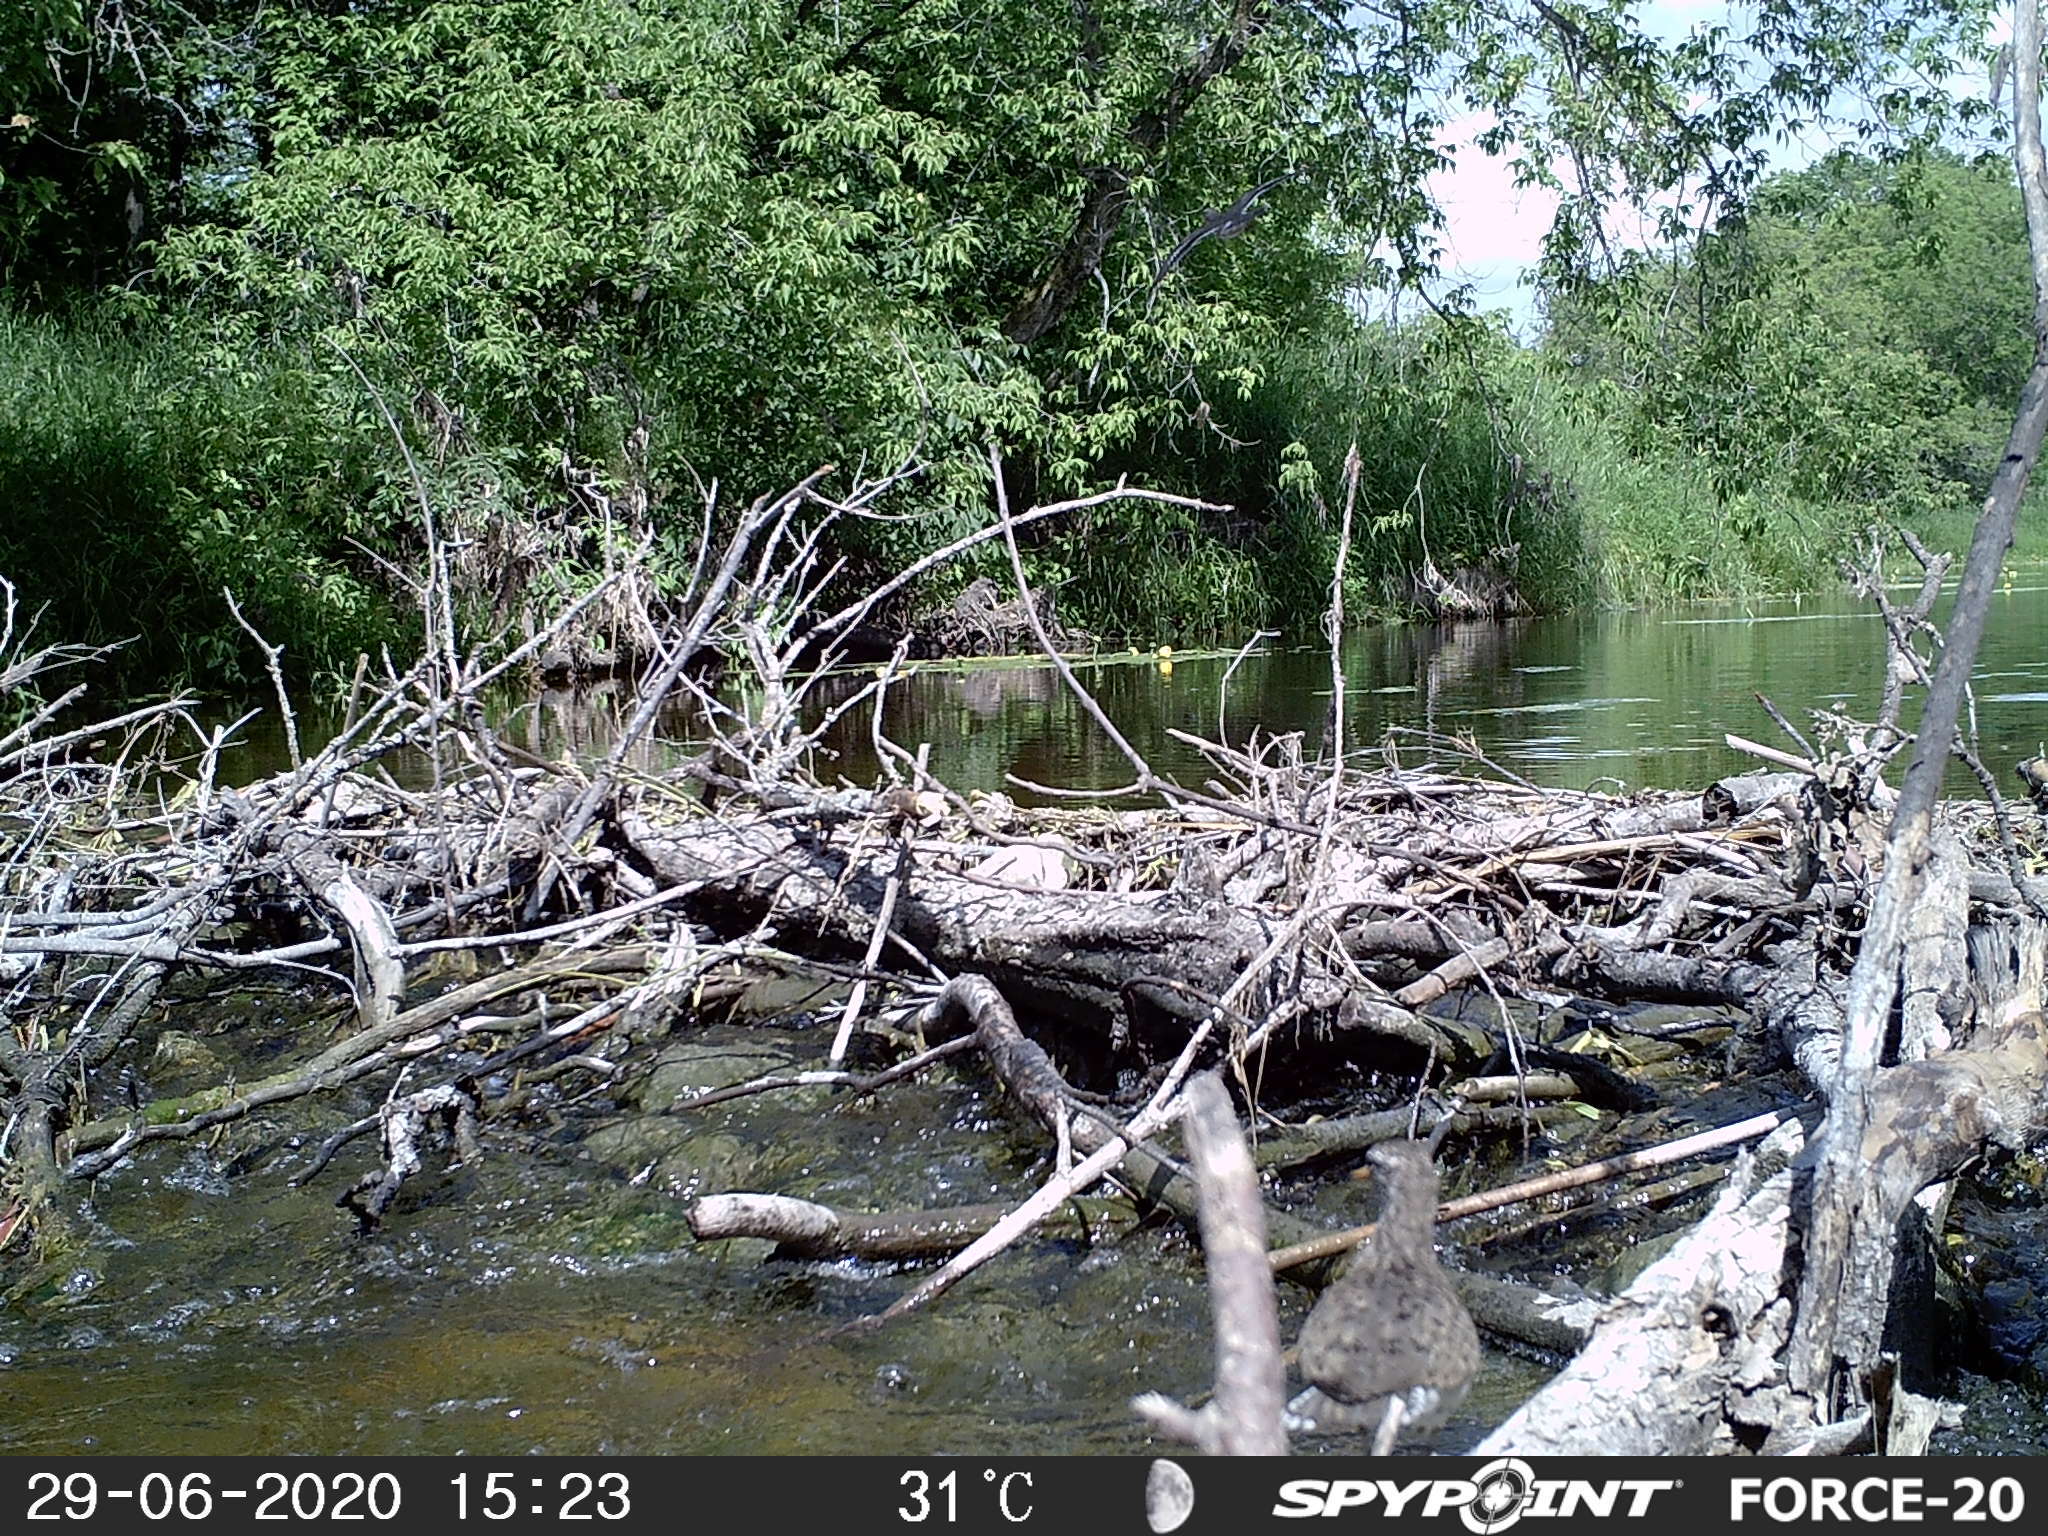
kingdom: Animalia
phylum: Chordata
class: Aves
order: Charadriiformes
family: Scolopacidae
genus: Actitis
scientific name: Actitis macularius
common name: Spotted sandpiper
